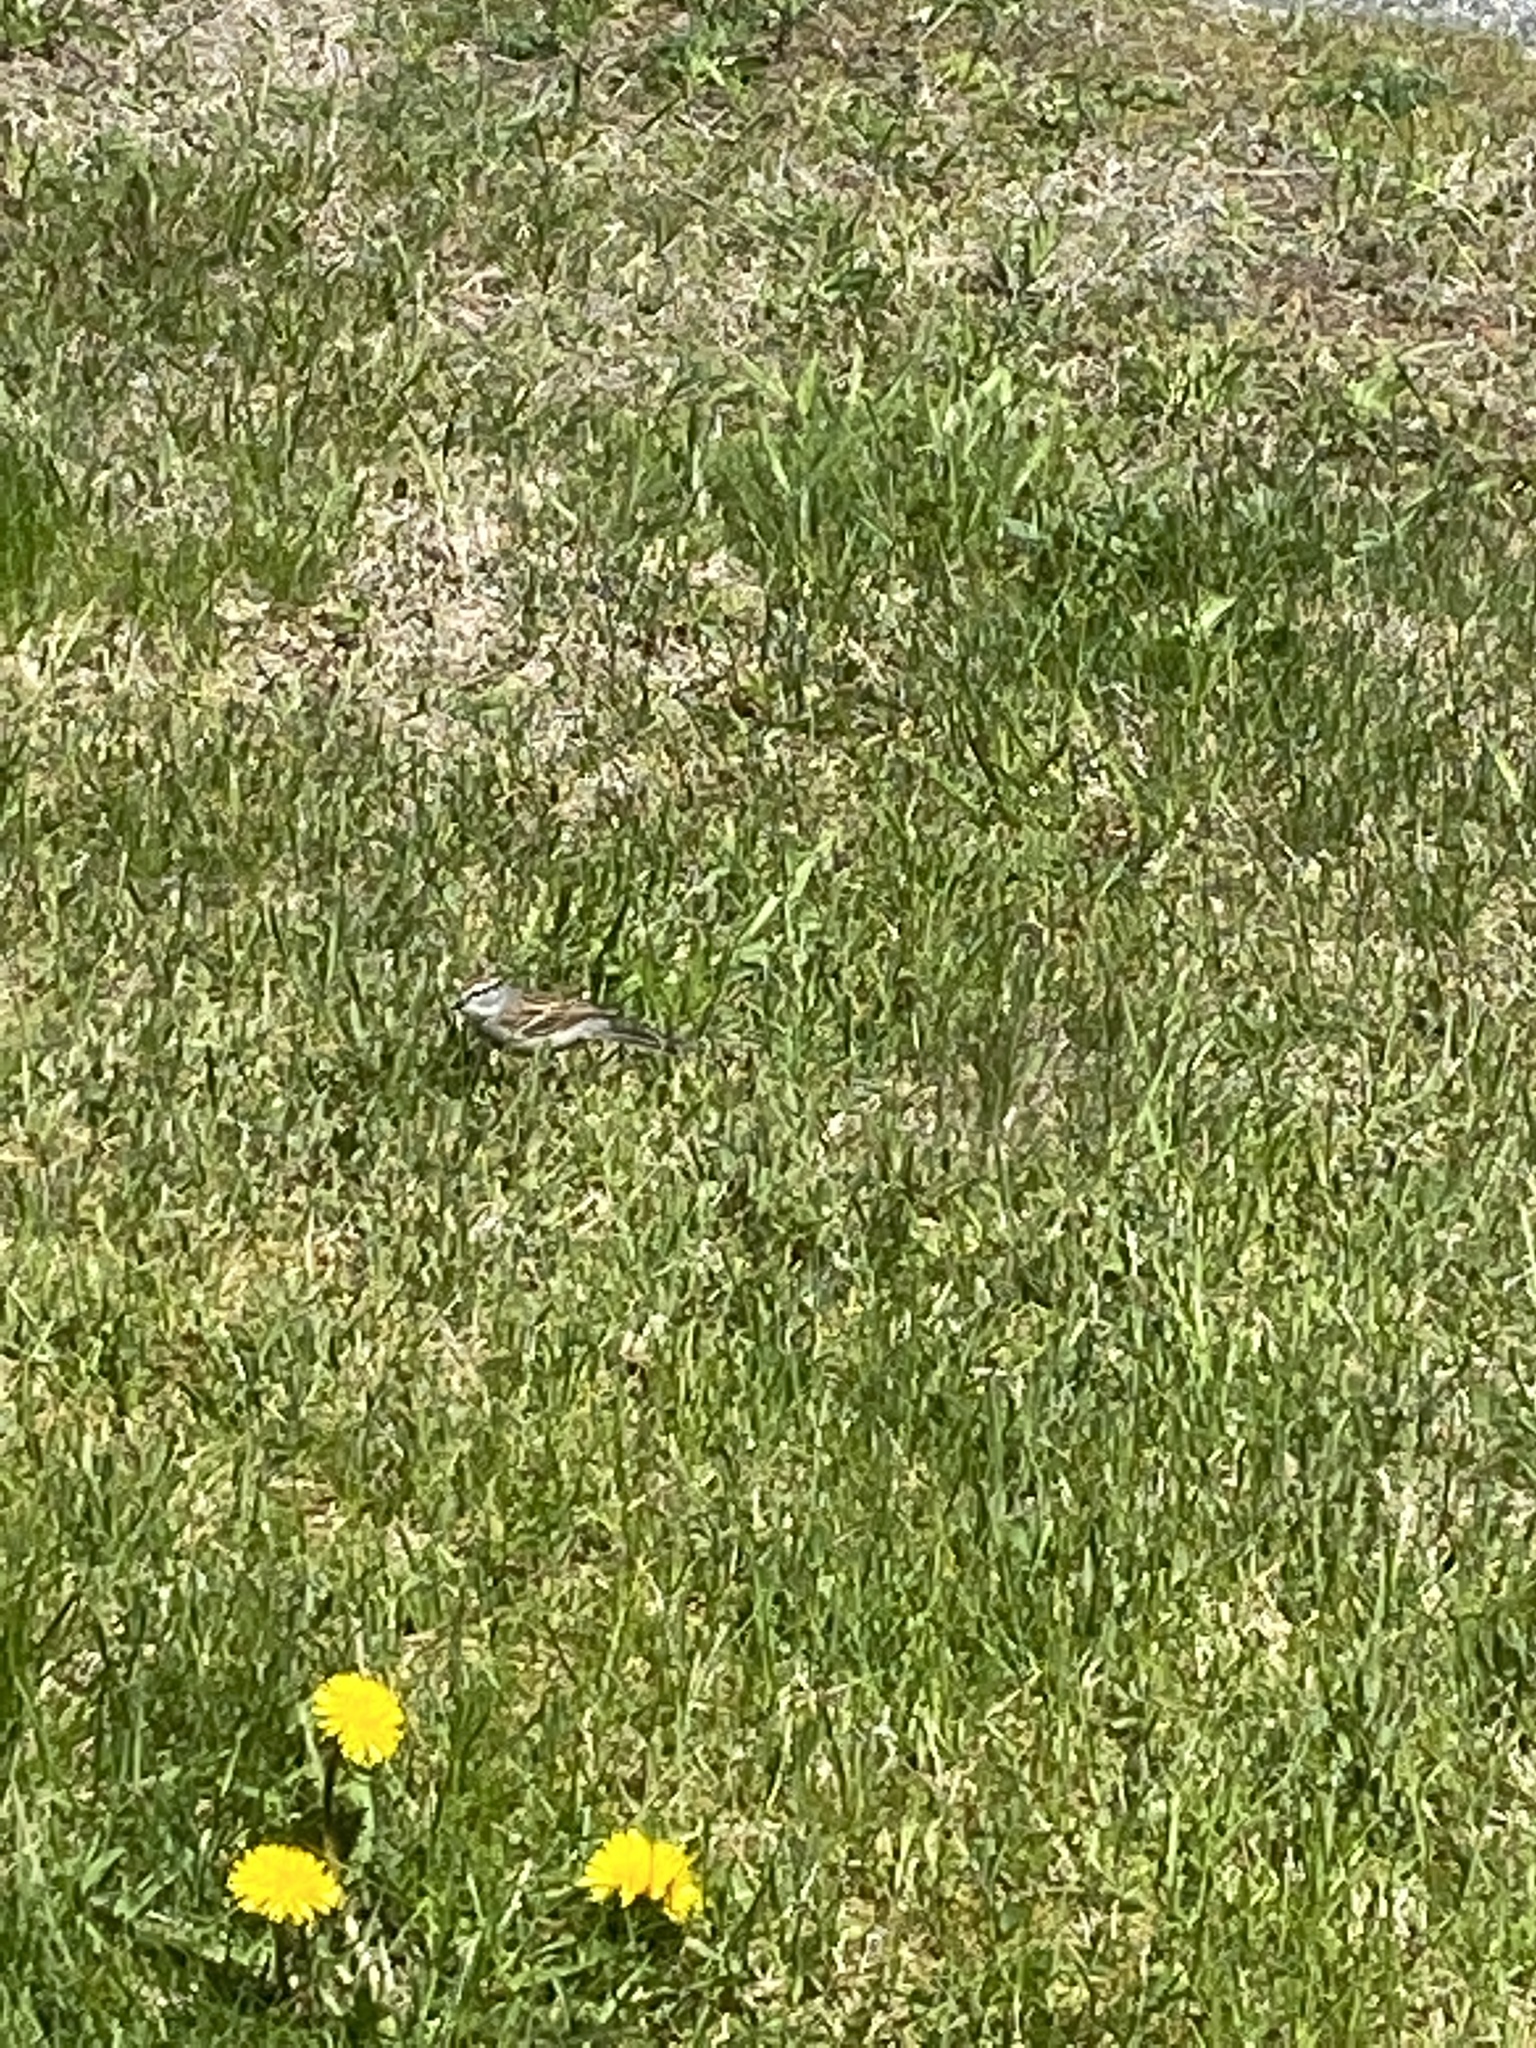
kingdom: Animalia
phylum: Chordata
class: Aves
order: Passeriformes
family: Passerellidae
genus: Spizella
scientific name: Spizella passerina
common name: Chipping sparrow
